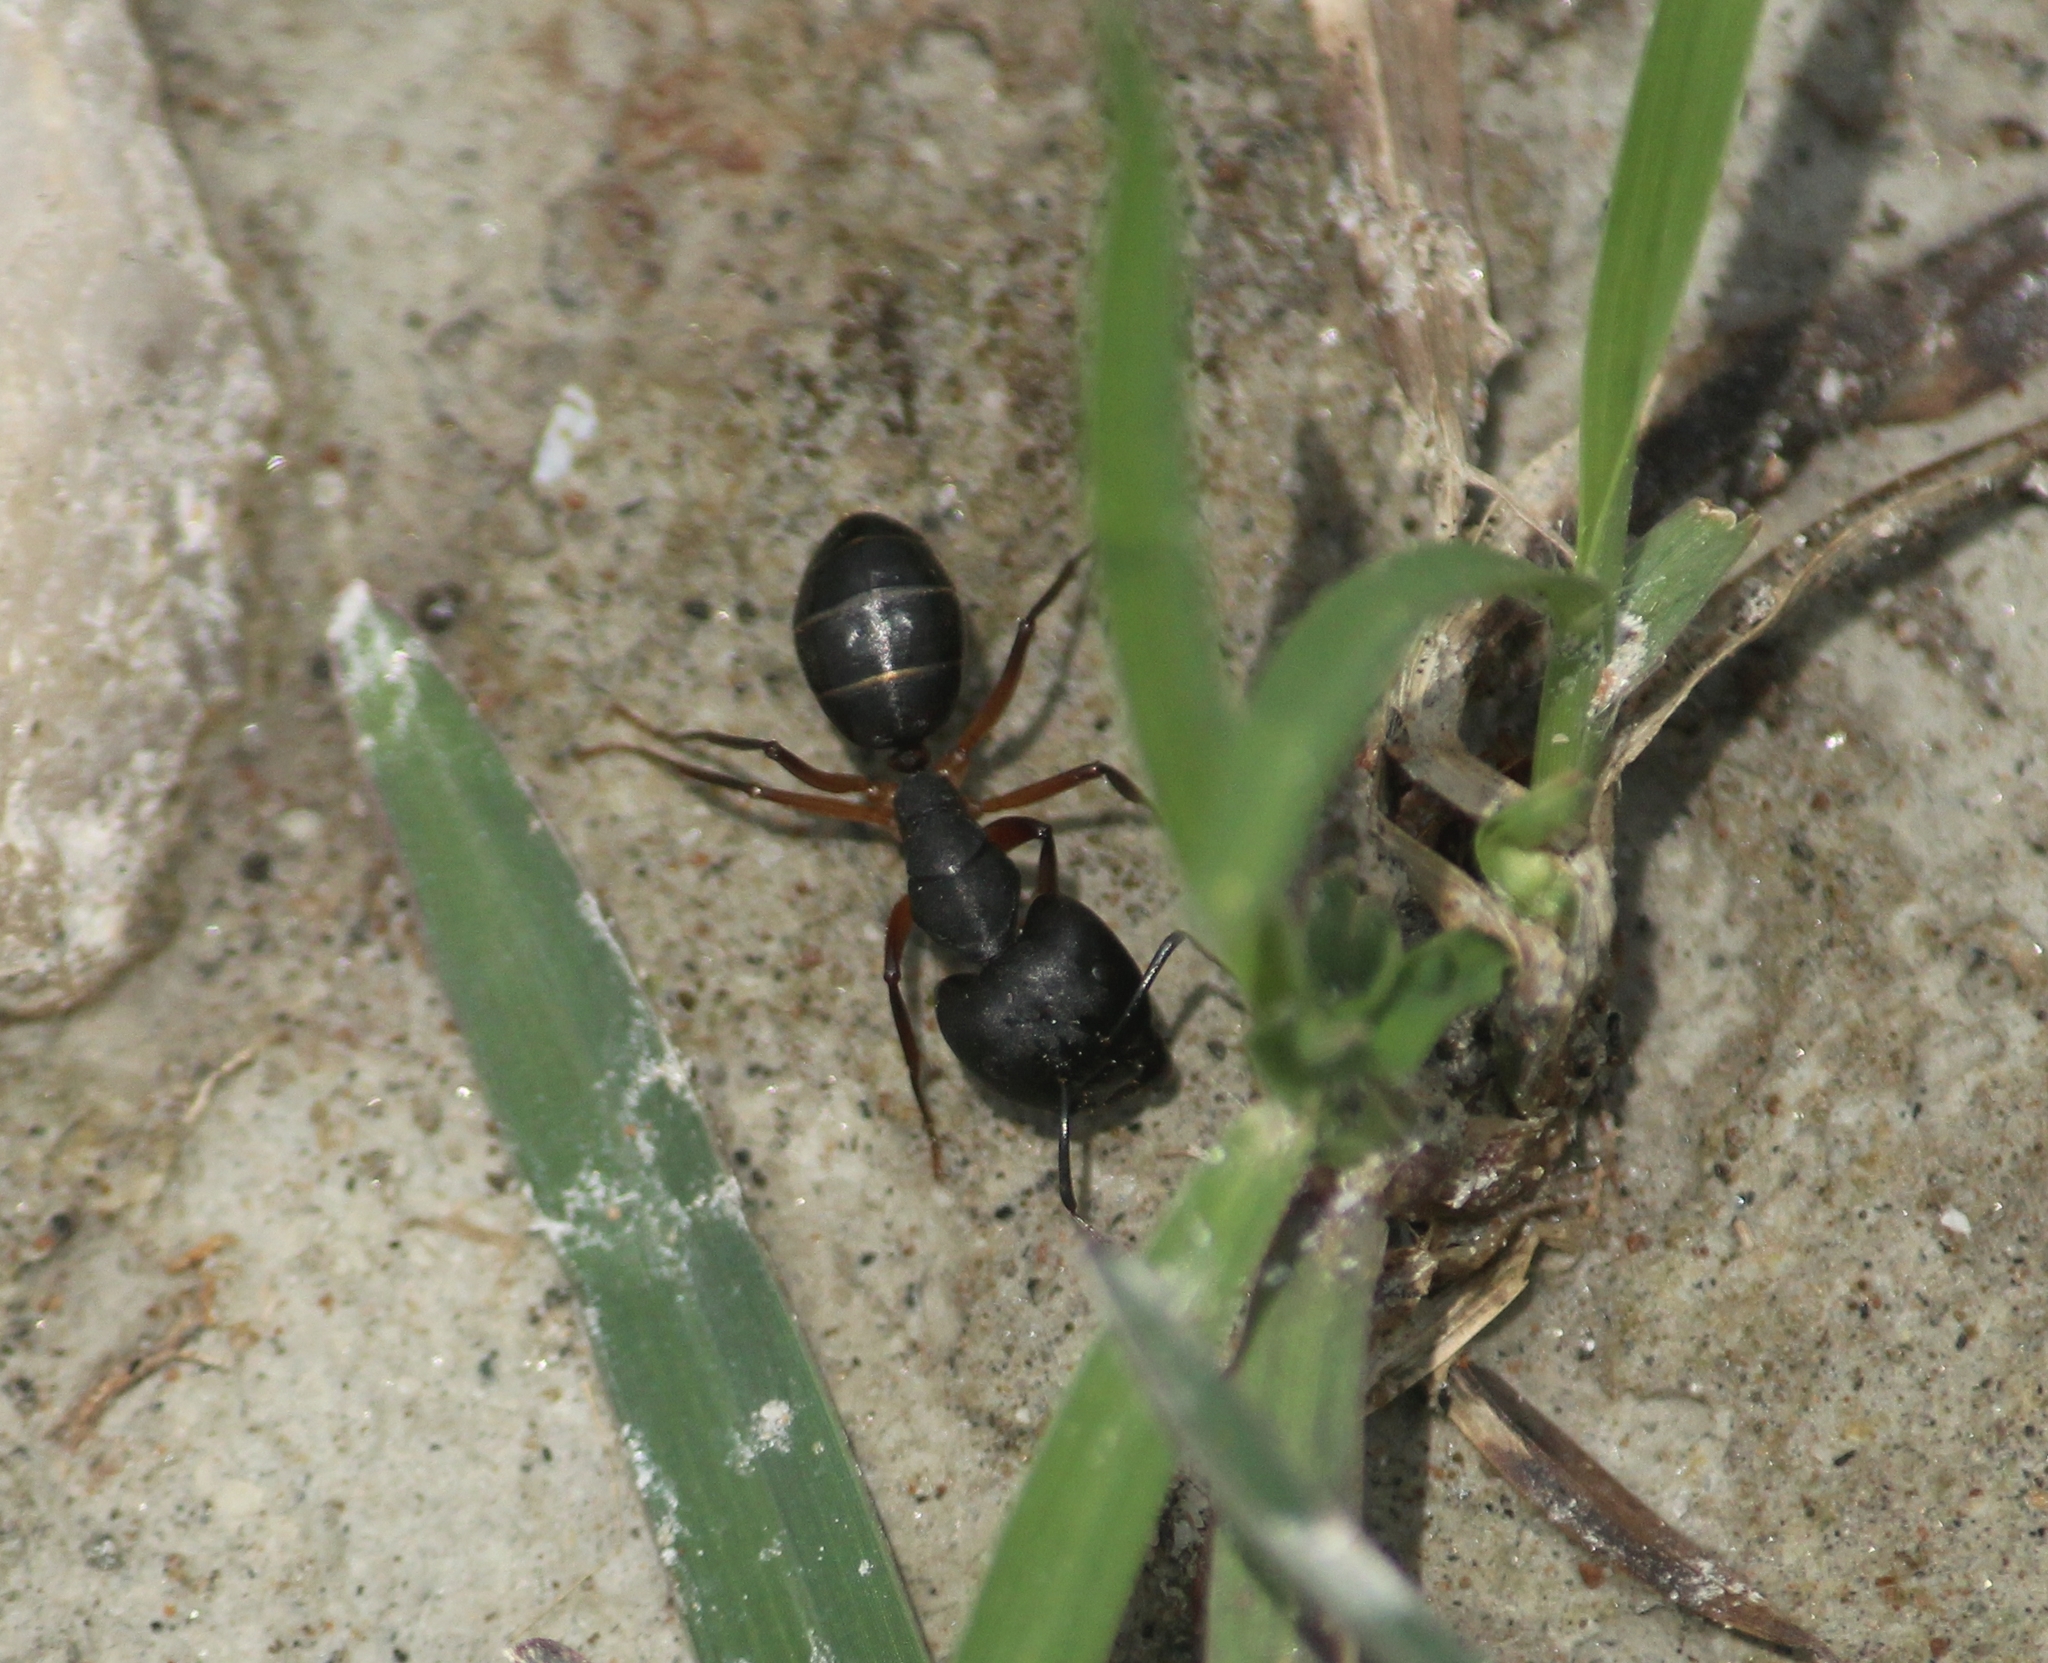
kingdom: Animalia
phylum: Arthropoda
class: Insecta
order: Hymenoptera
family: Formicidae
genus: Camponotus
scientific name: Camponotus compressus
